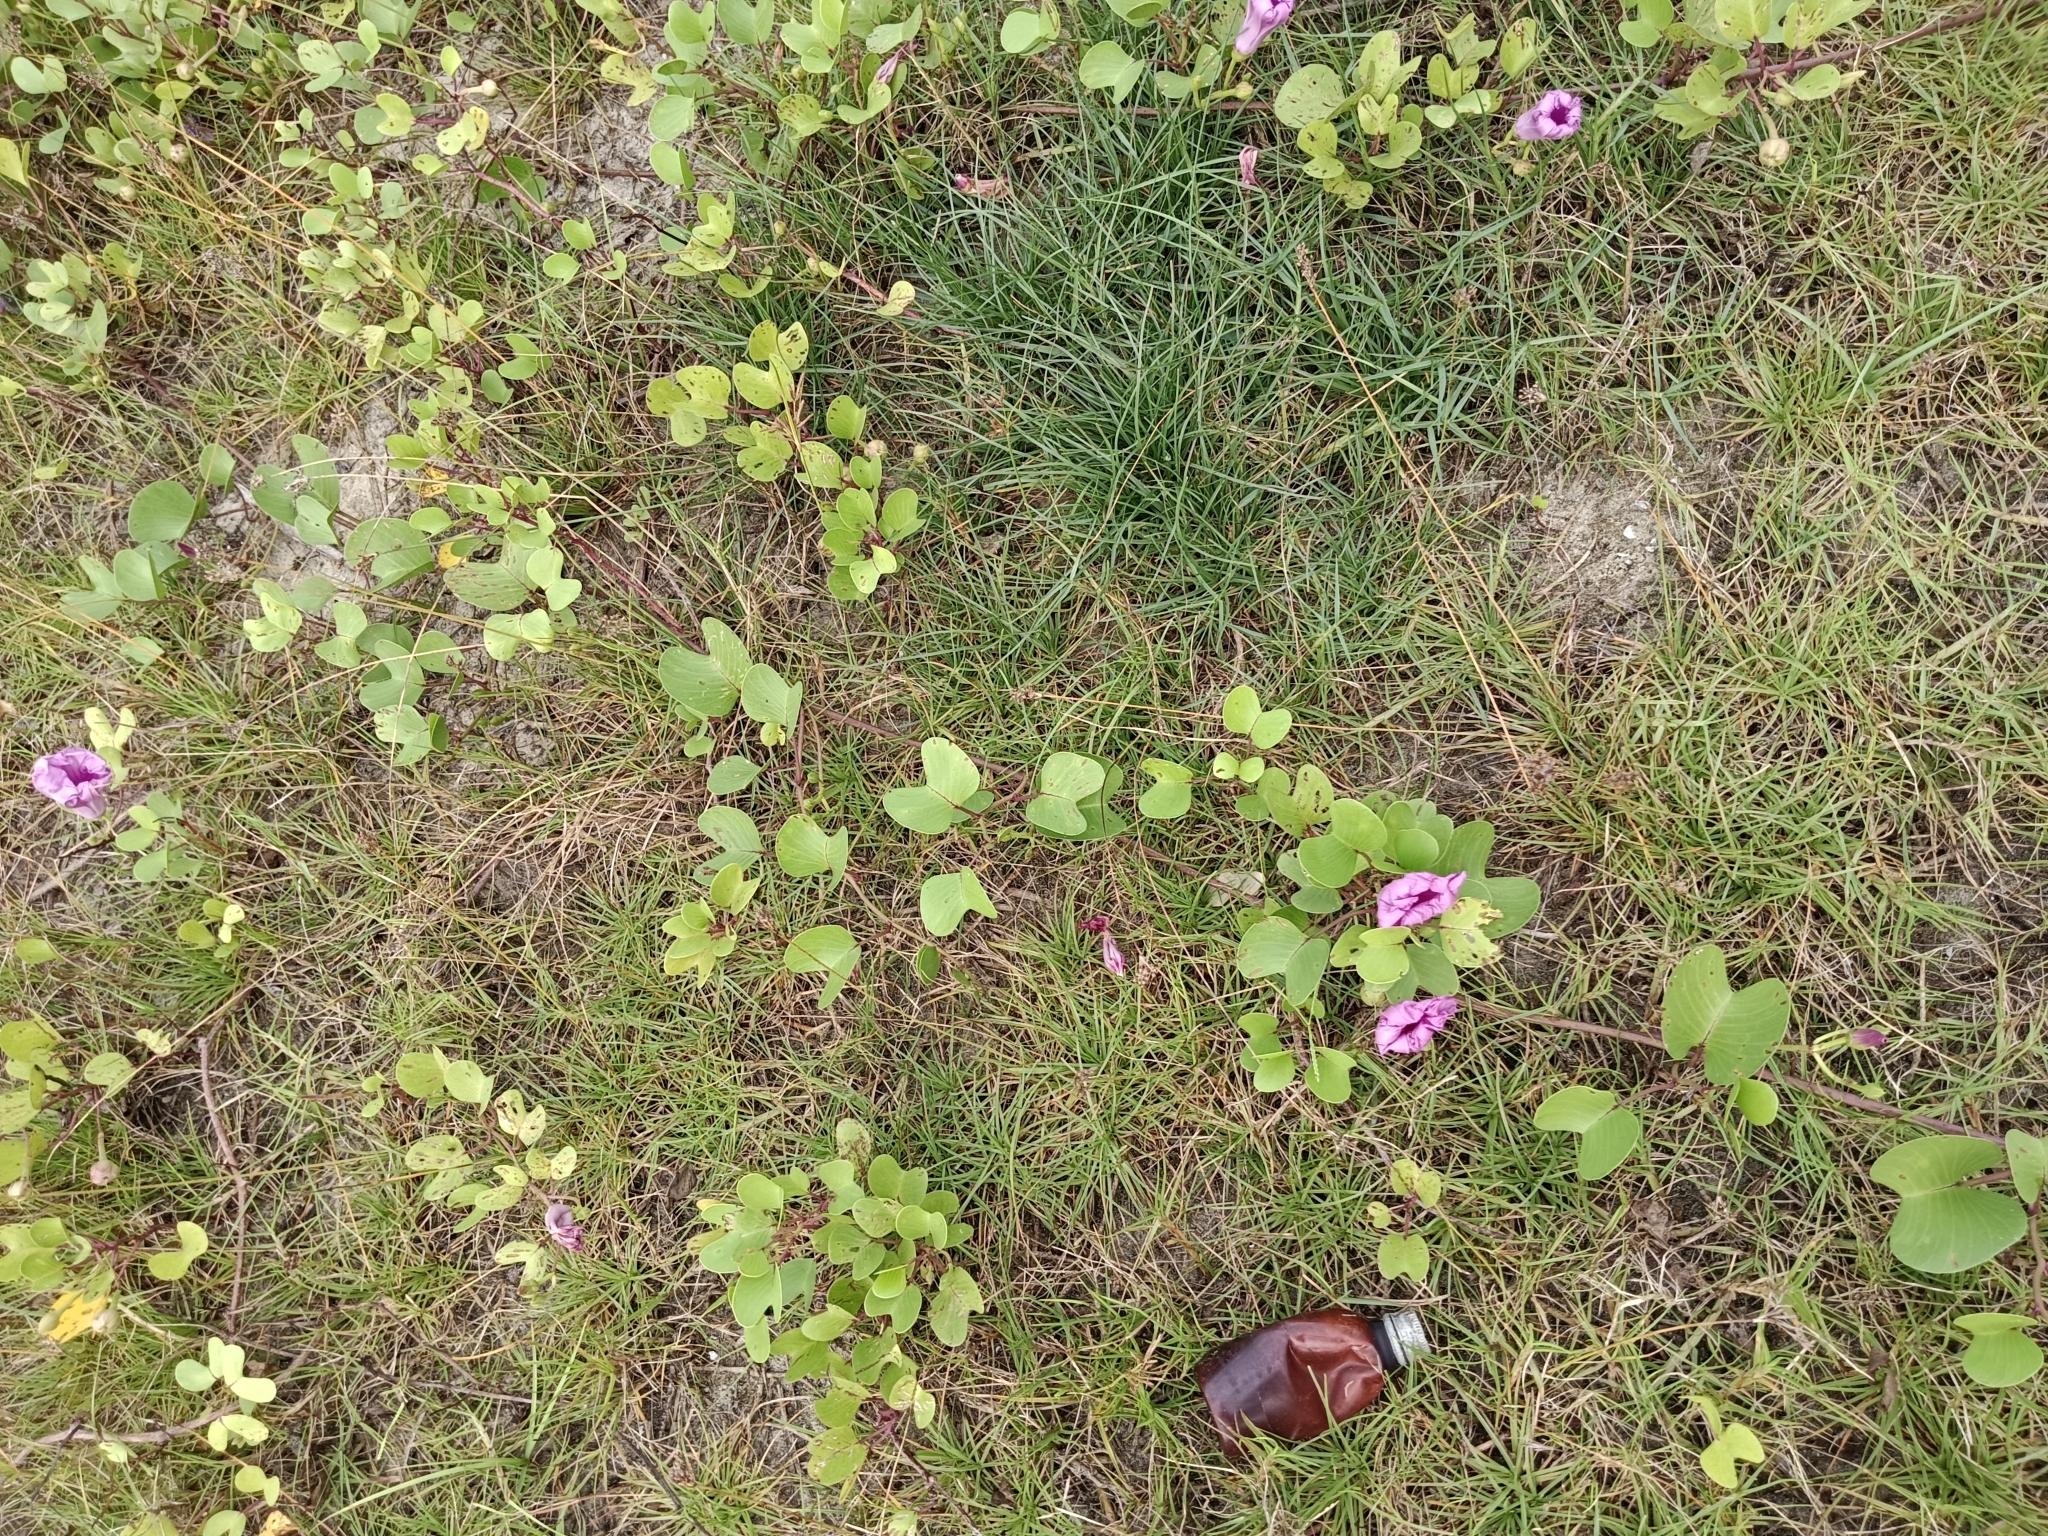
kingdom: Plantae
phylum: Tracheophyta
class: Magnoliopsida
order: Solanales
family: Convolvulaceae
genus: Ipomoea
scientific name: Ipomoea pes-caprae
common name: Beach morning glory
